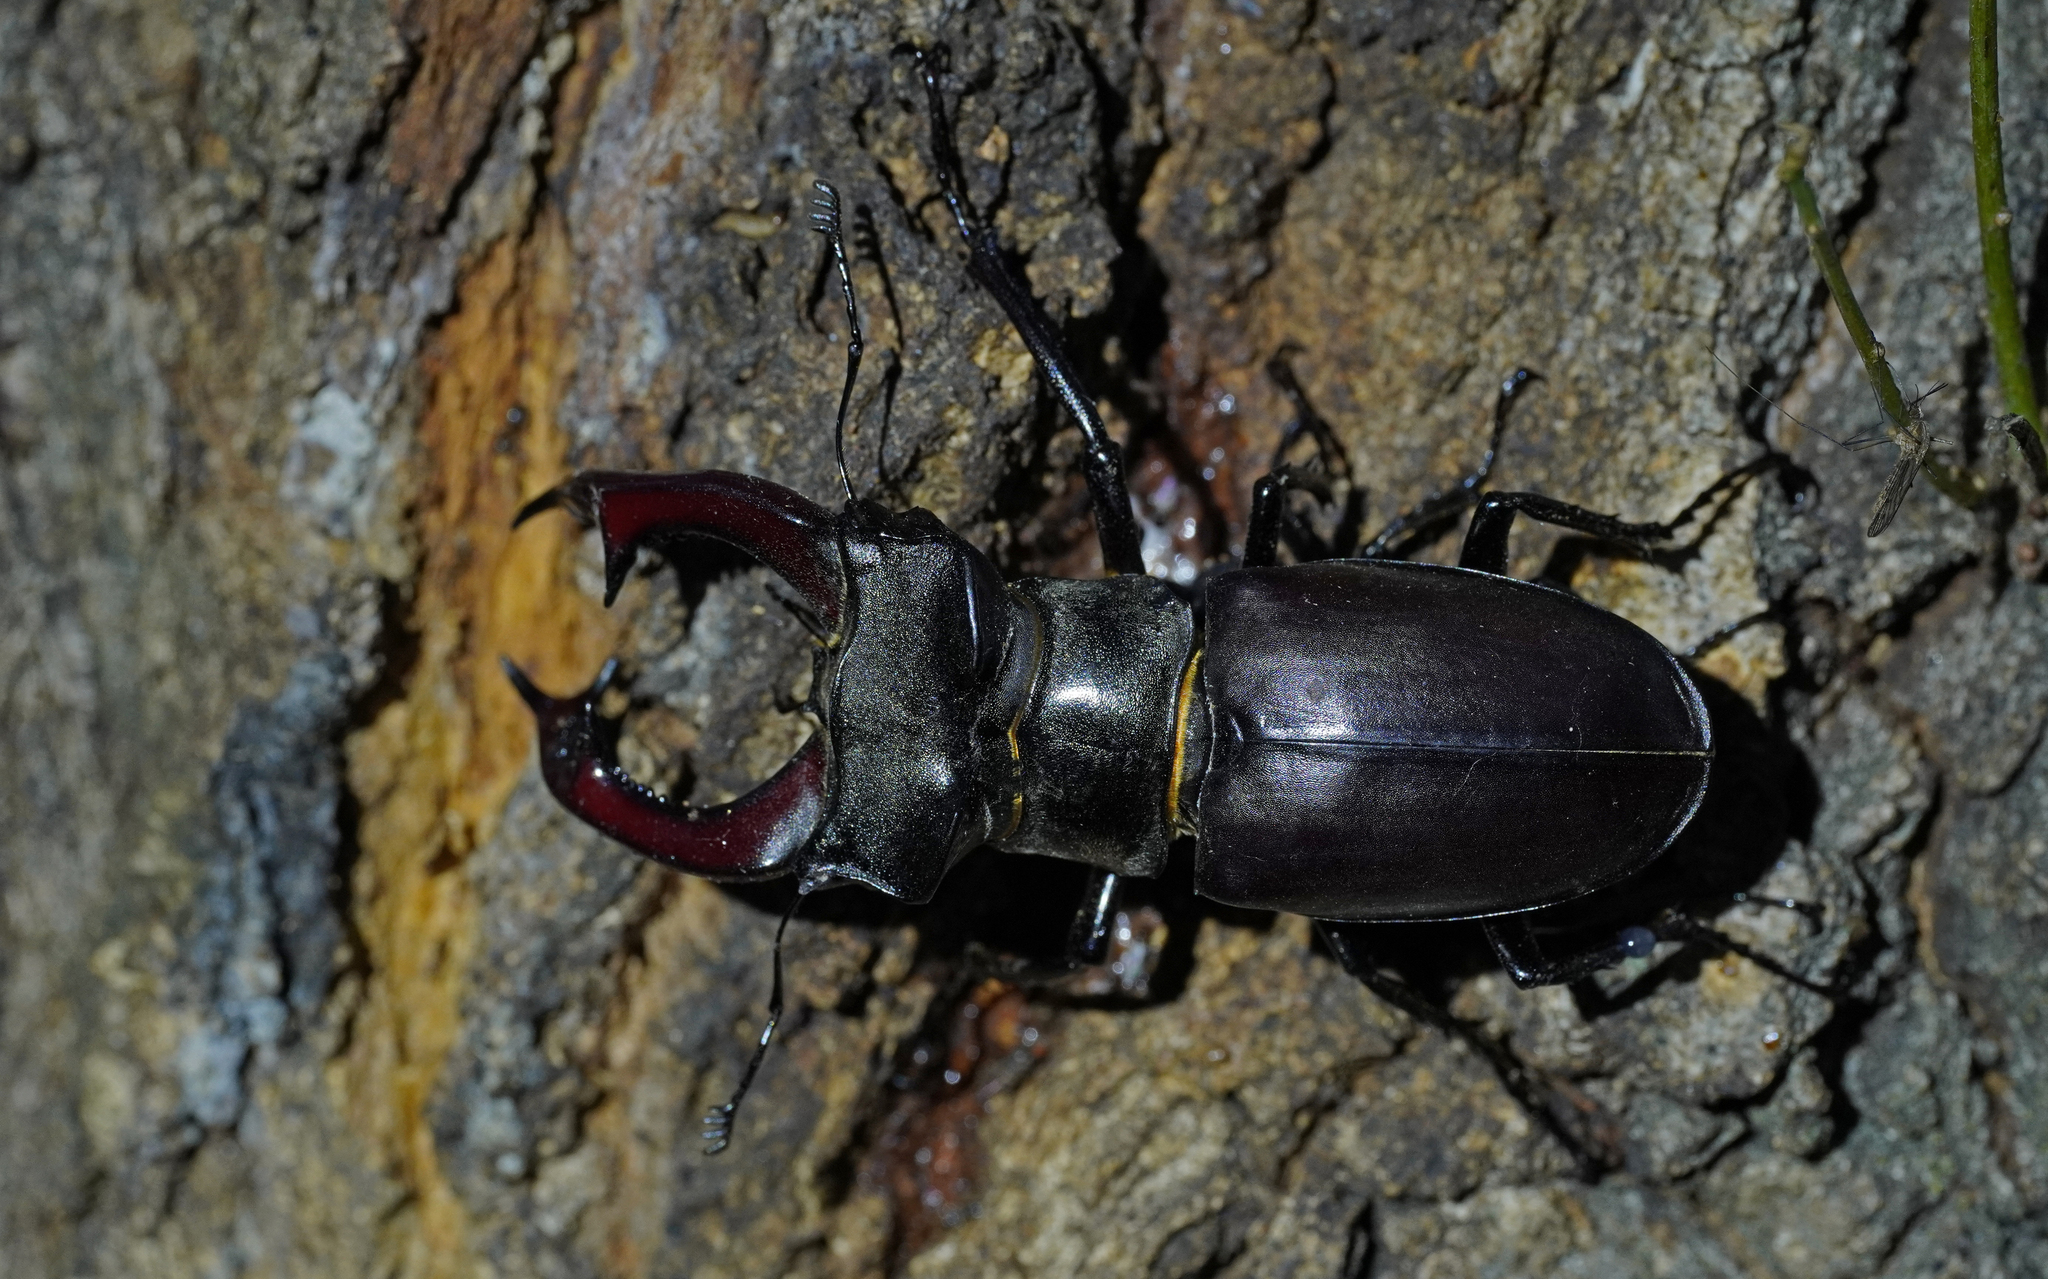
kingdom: Animalia
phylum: Arthropoda
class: Insecta
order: Coleoptera
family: Lucanidae
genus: Lucanus
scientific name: Lucanus cervus
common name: Stag beetle
